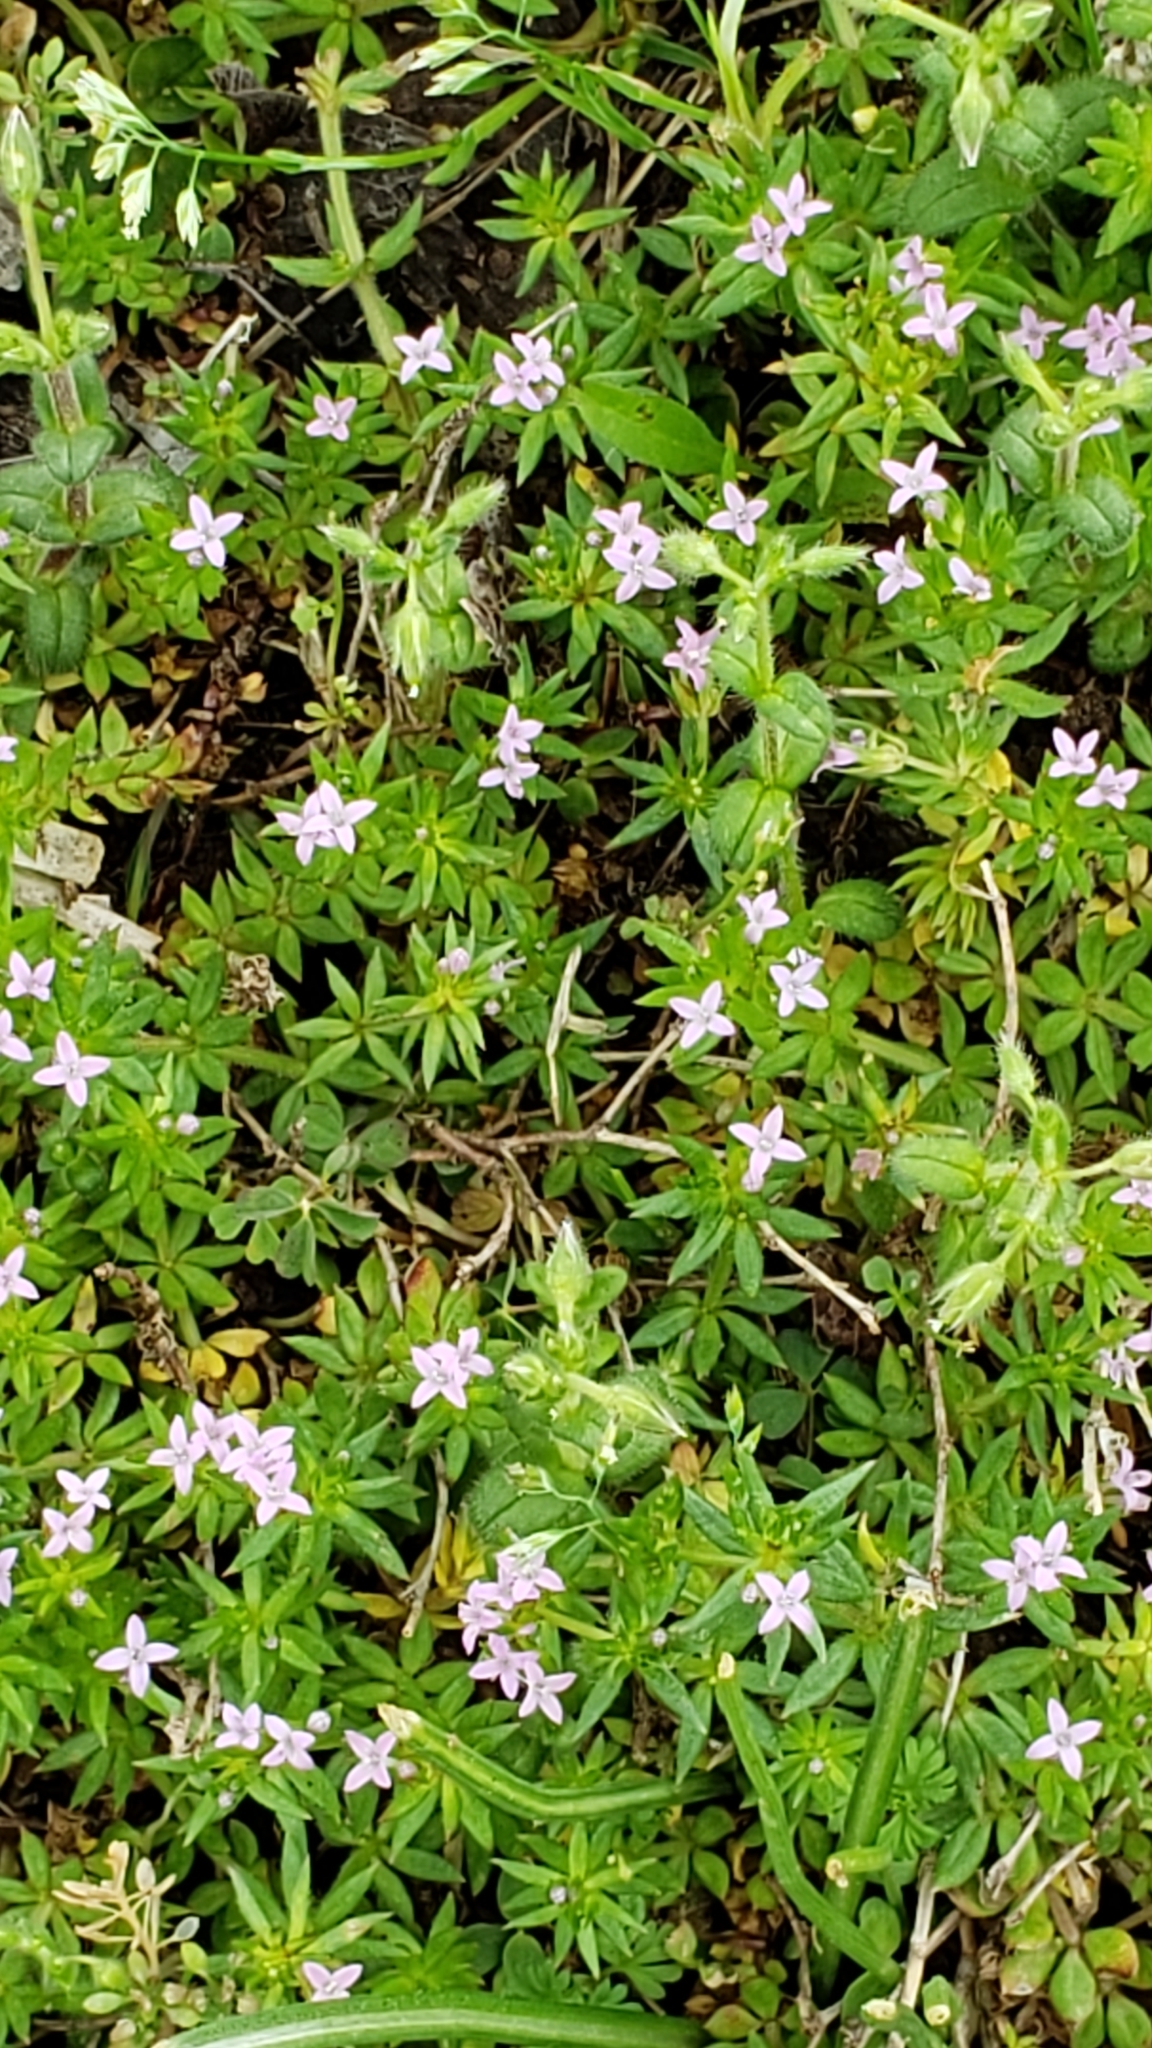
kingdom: Plantae
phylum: Tracheophyta
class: Magnoliopsida
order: Gentianales
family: Rubiaceae
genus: Sherardia
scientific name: Sherardia arvensis
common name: Field madder
